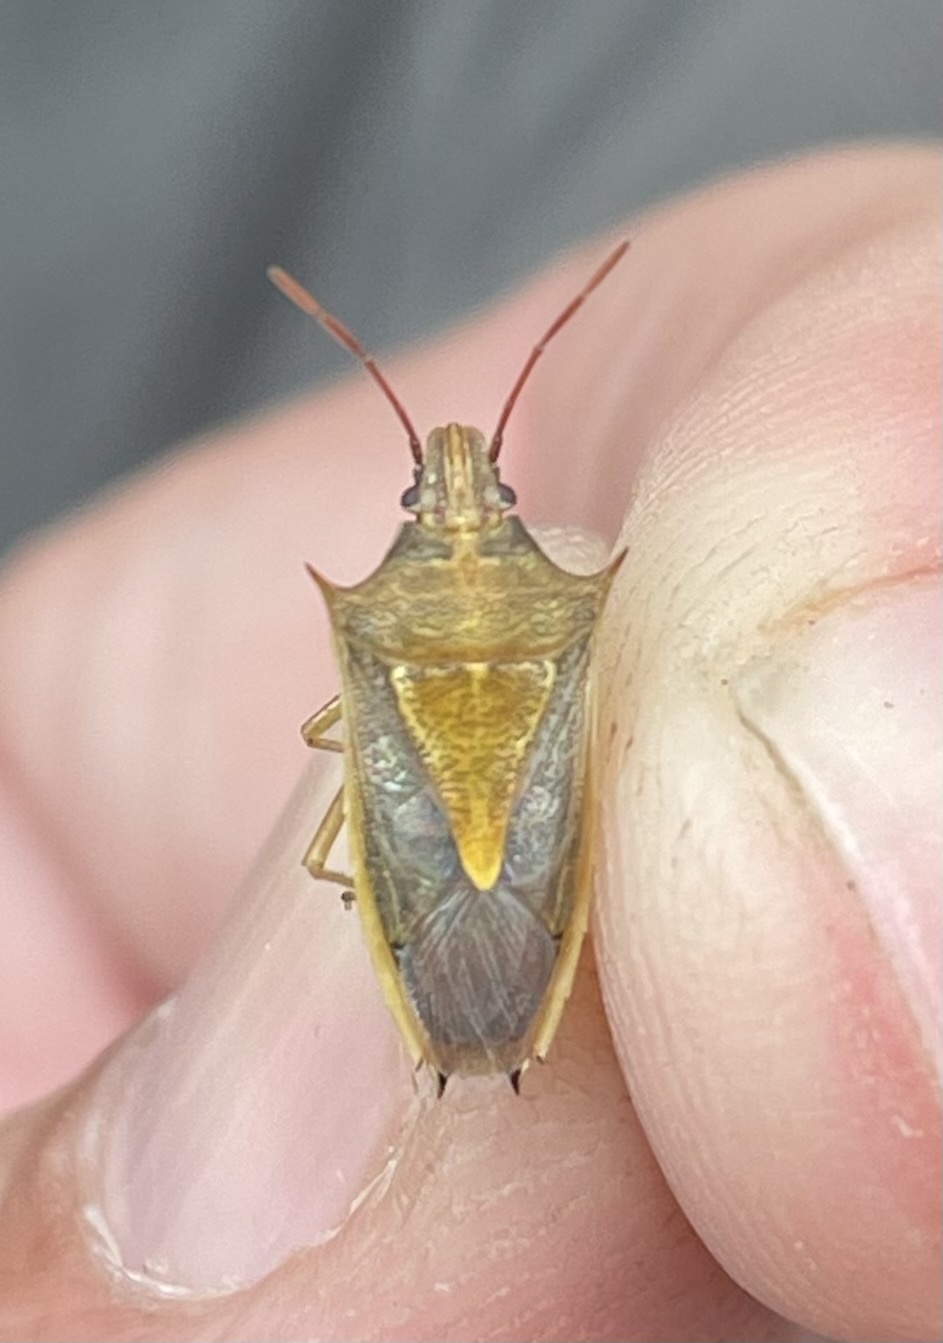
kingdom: Animalia
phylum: Arthropoda
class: Insecta
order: Hemiptera
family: Pentatomidae
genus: Oebalus
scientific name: Oebalus pugnax
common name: Rice stink bug
